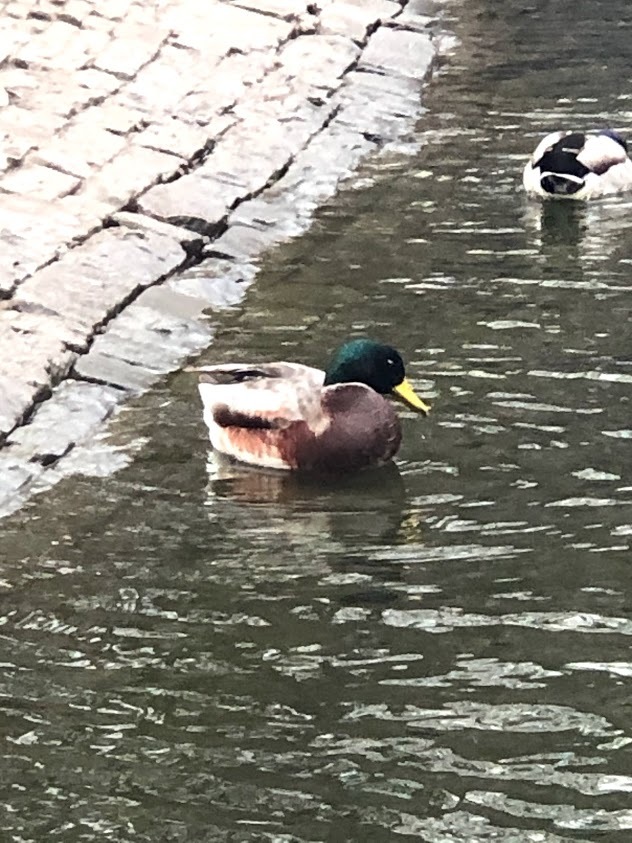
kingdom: Animalia
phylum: Chordata
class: Aves
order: Anseriformes
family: Anatidae
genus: Anas
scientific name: Anas platyrhynchos
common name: Mallard
